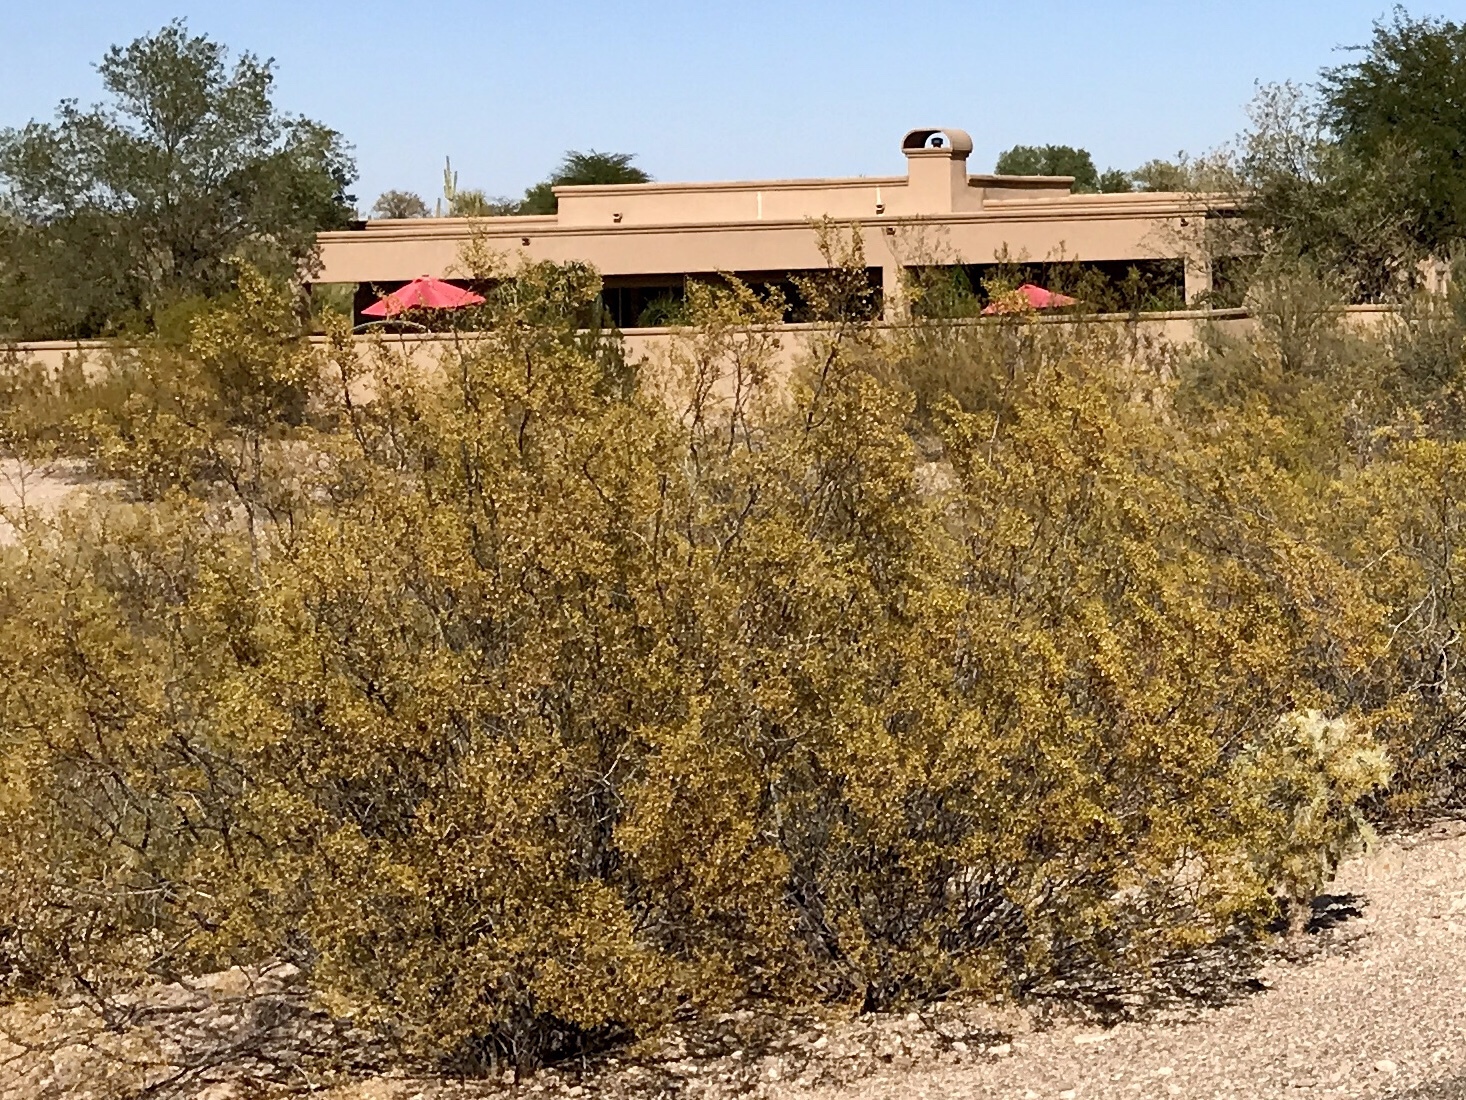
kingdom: Plantae
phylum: Tracheophyta
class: Magnoliopsida
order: Zygophyllales
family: Zygophyllaceae
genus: Larrea
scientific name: Larrea tridentata
